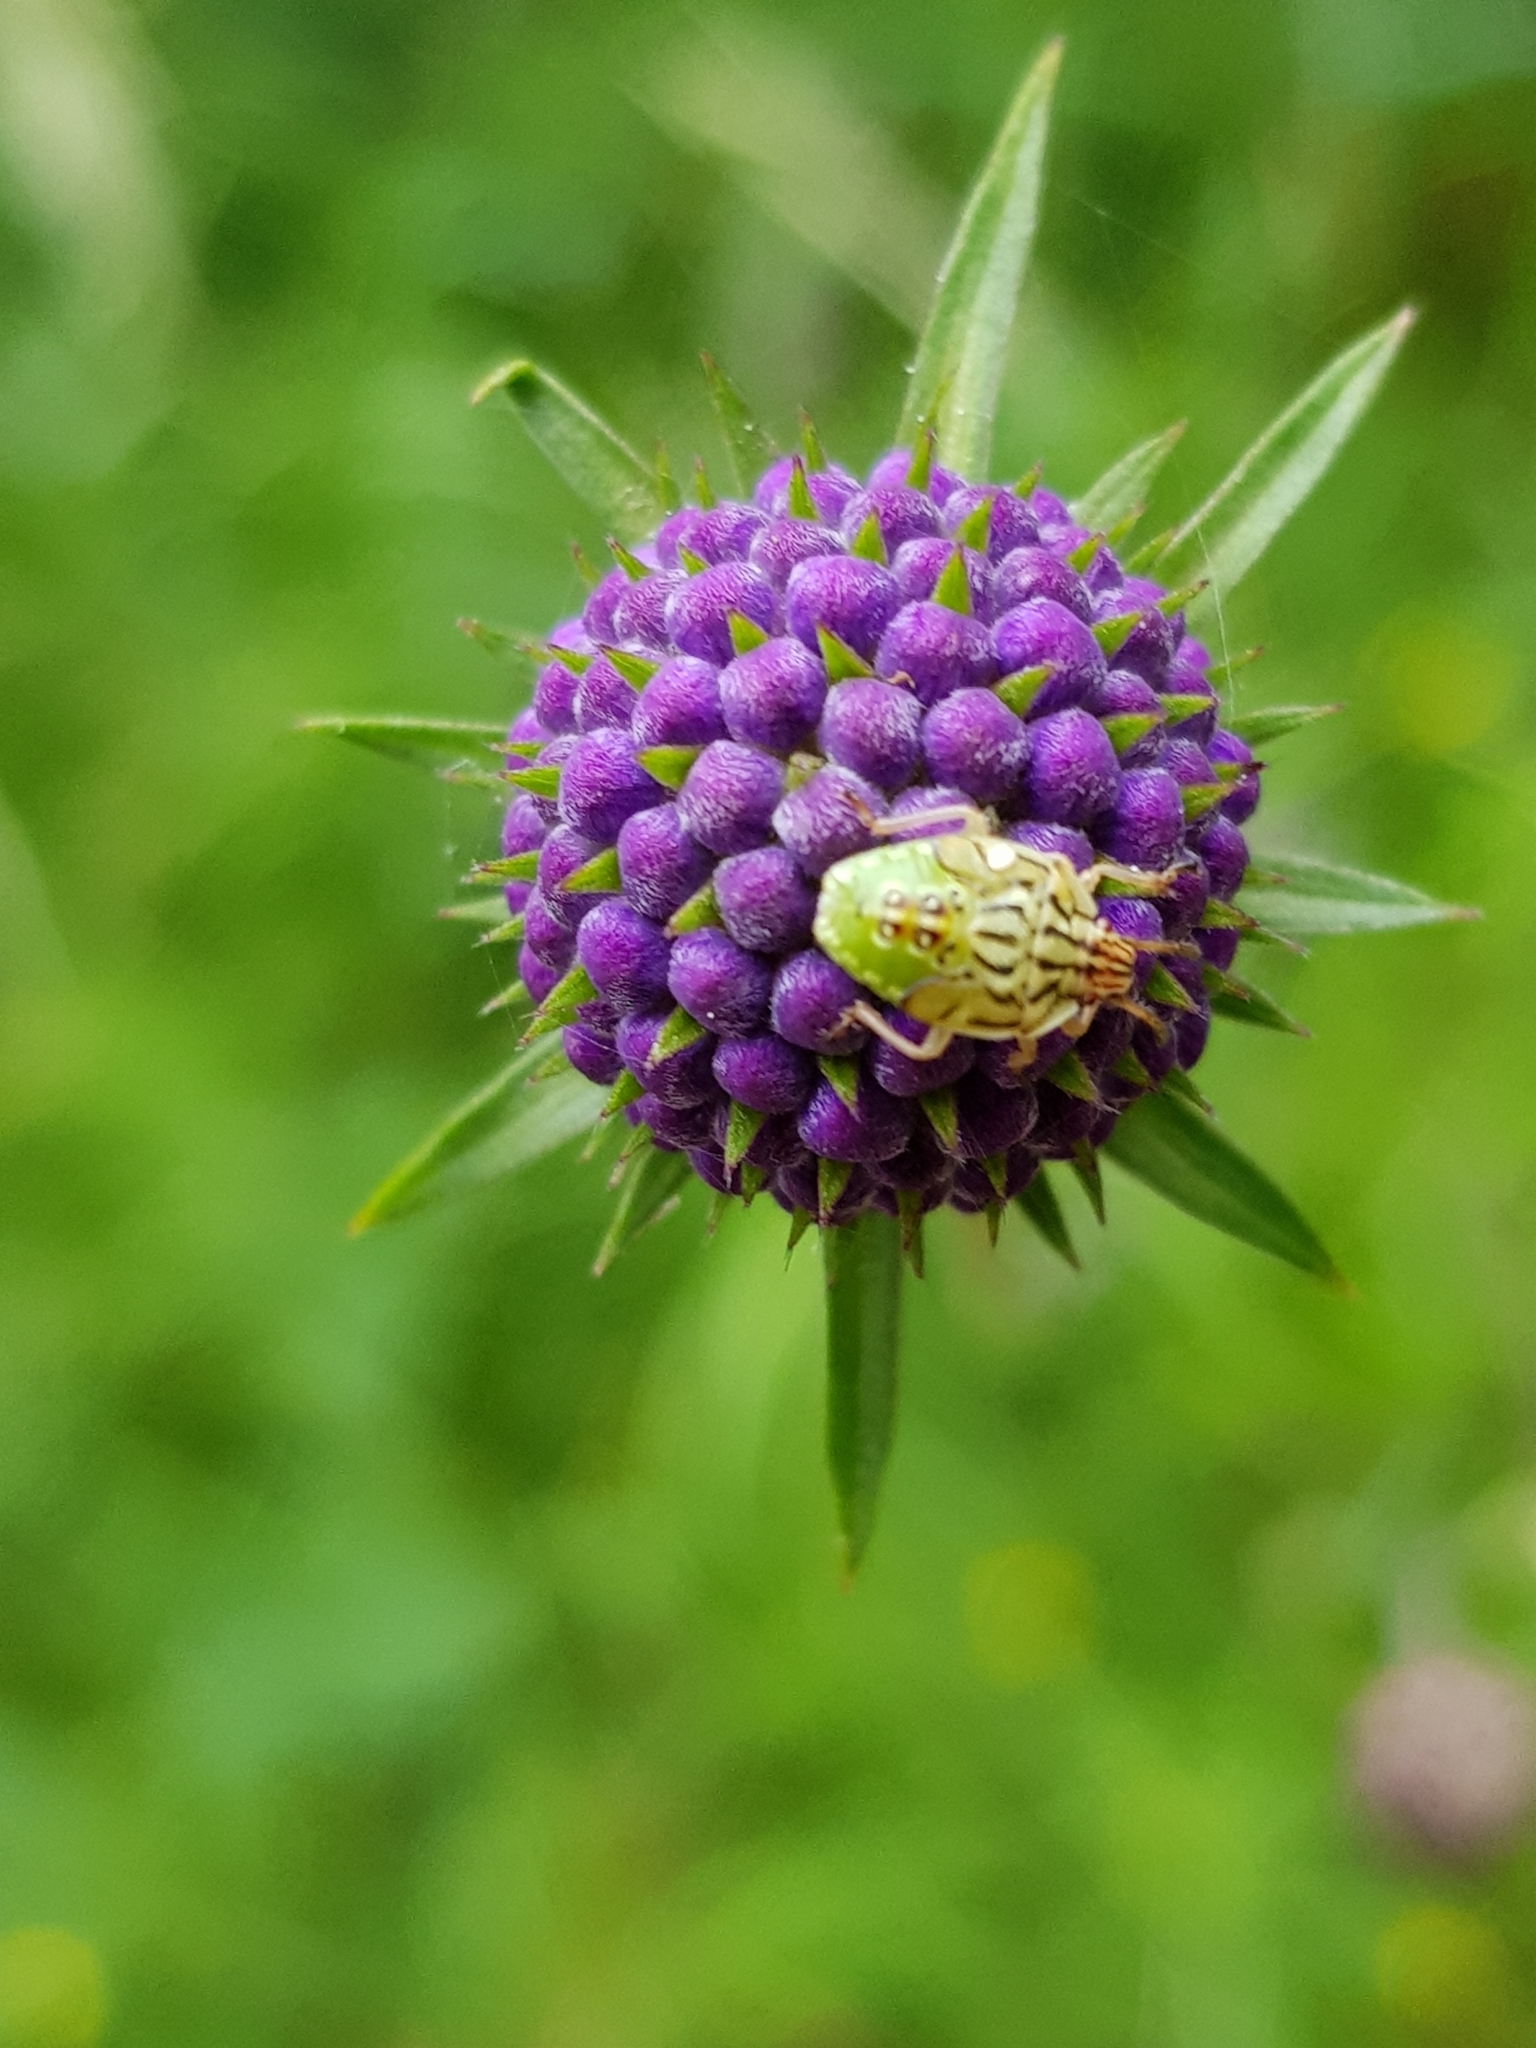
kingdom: Animalia
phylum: Arthropoda
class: Insecta
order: Hemiptera
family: Acanthosomatidae
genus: Elasmucha
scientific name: Elasmucha grisea
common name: Parent bug
